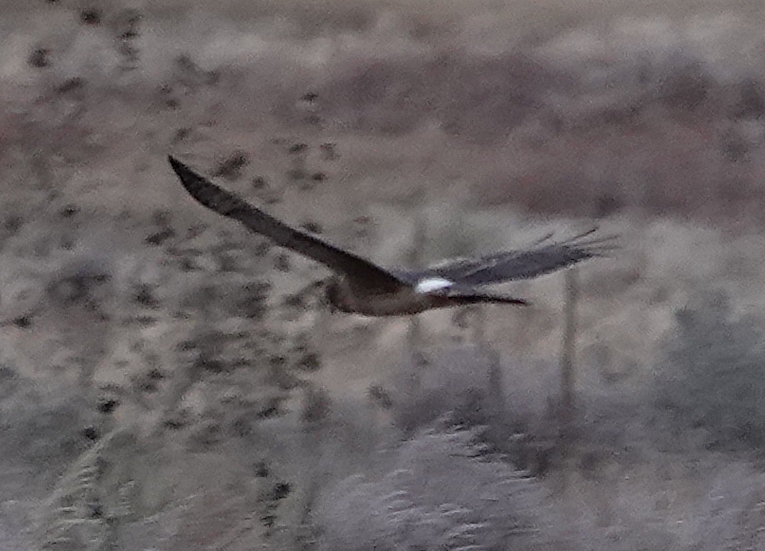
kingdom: Animalia
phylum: Chordata
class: Aves
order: Accipitriformes
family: Accipitridae
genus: Circus
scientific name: Circus cyaneus
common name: Hen harrier
